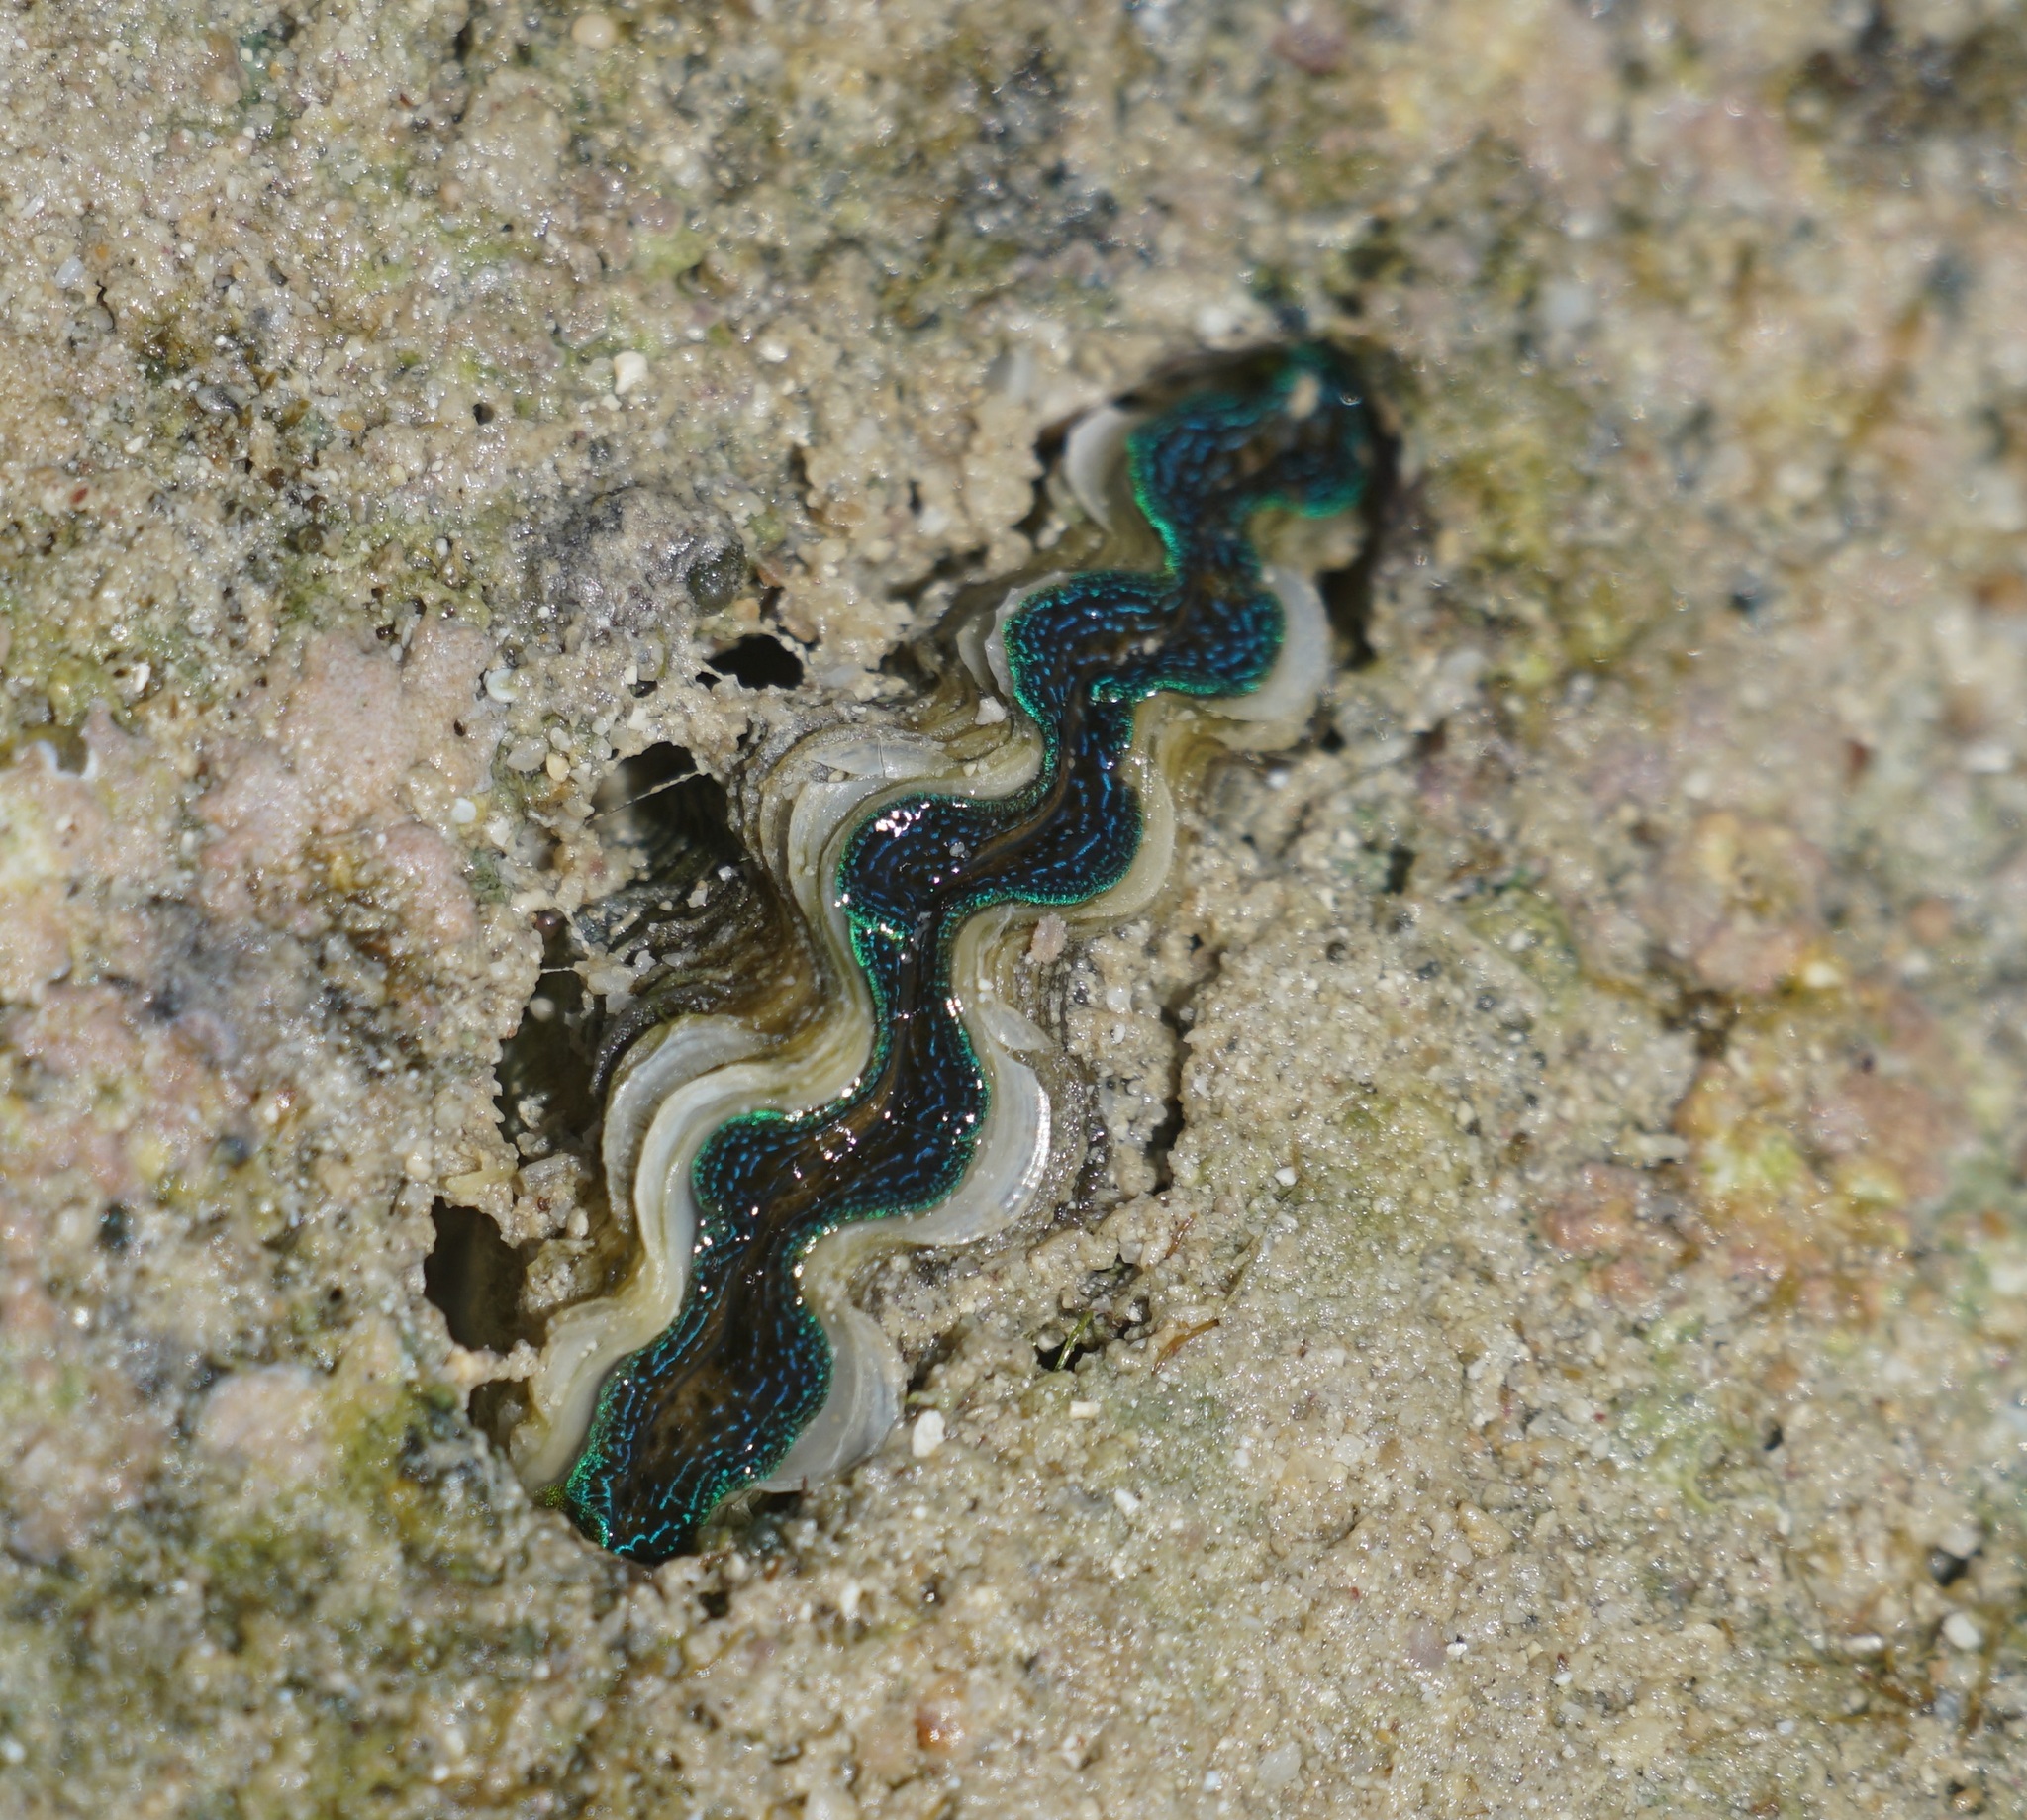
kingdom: Animalia
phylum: Mollusca
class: Bivalvia
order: Cardiida
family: Cardiidae
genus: Tridacna
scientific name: Tridacna crocea
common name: Boring clam
